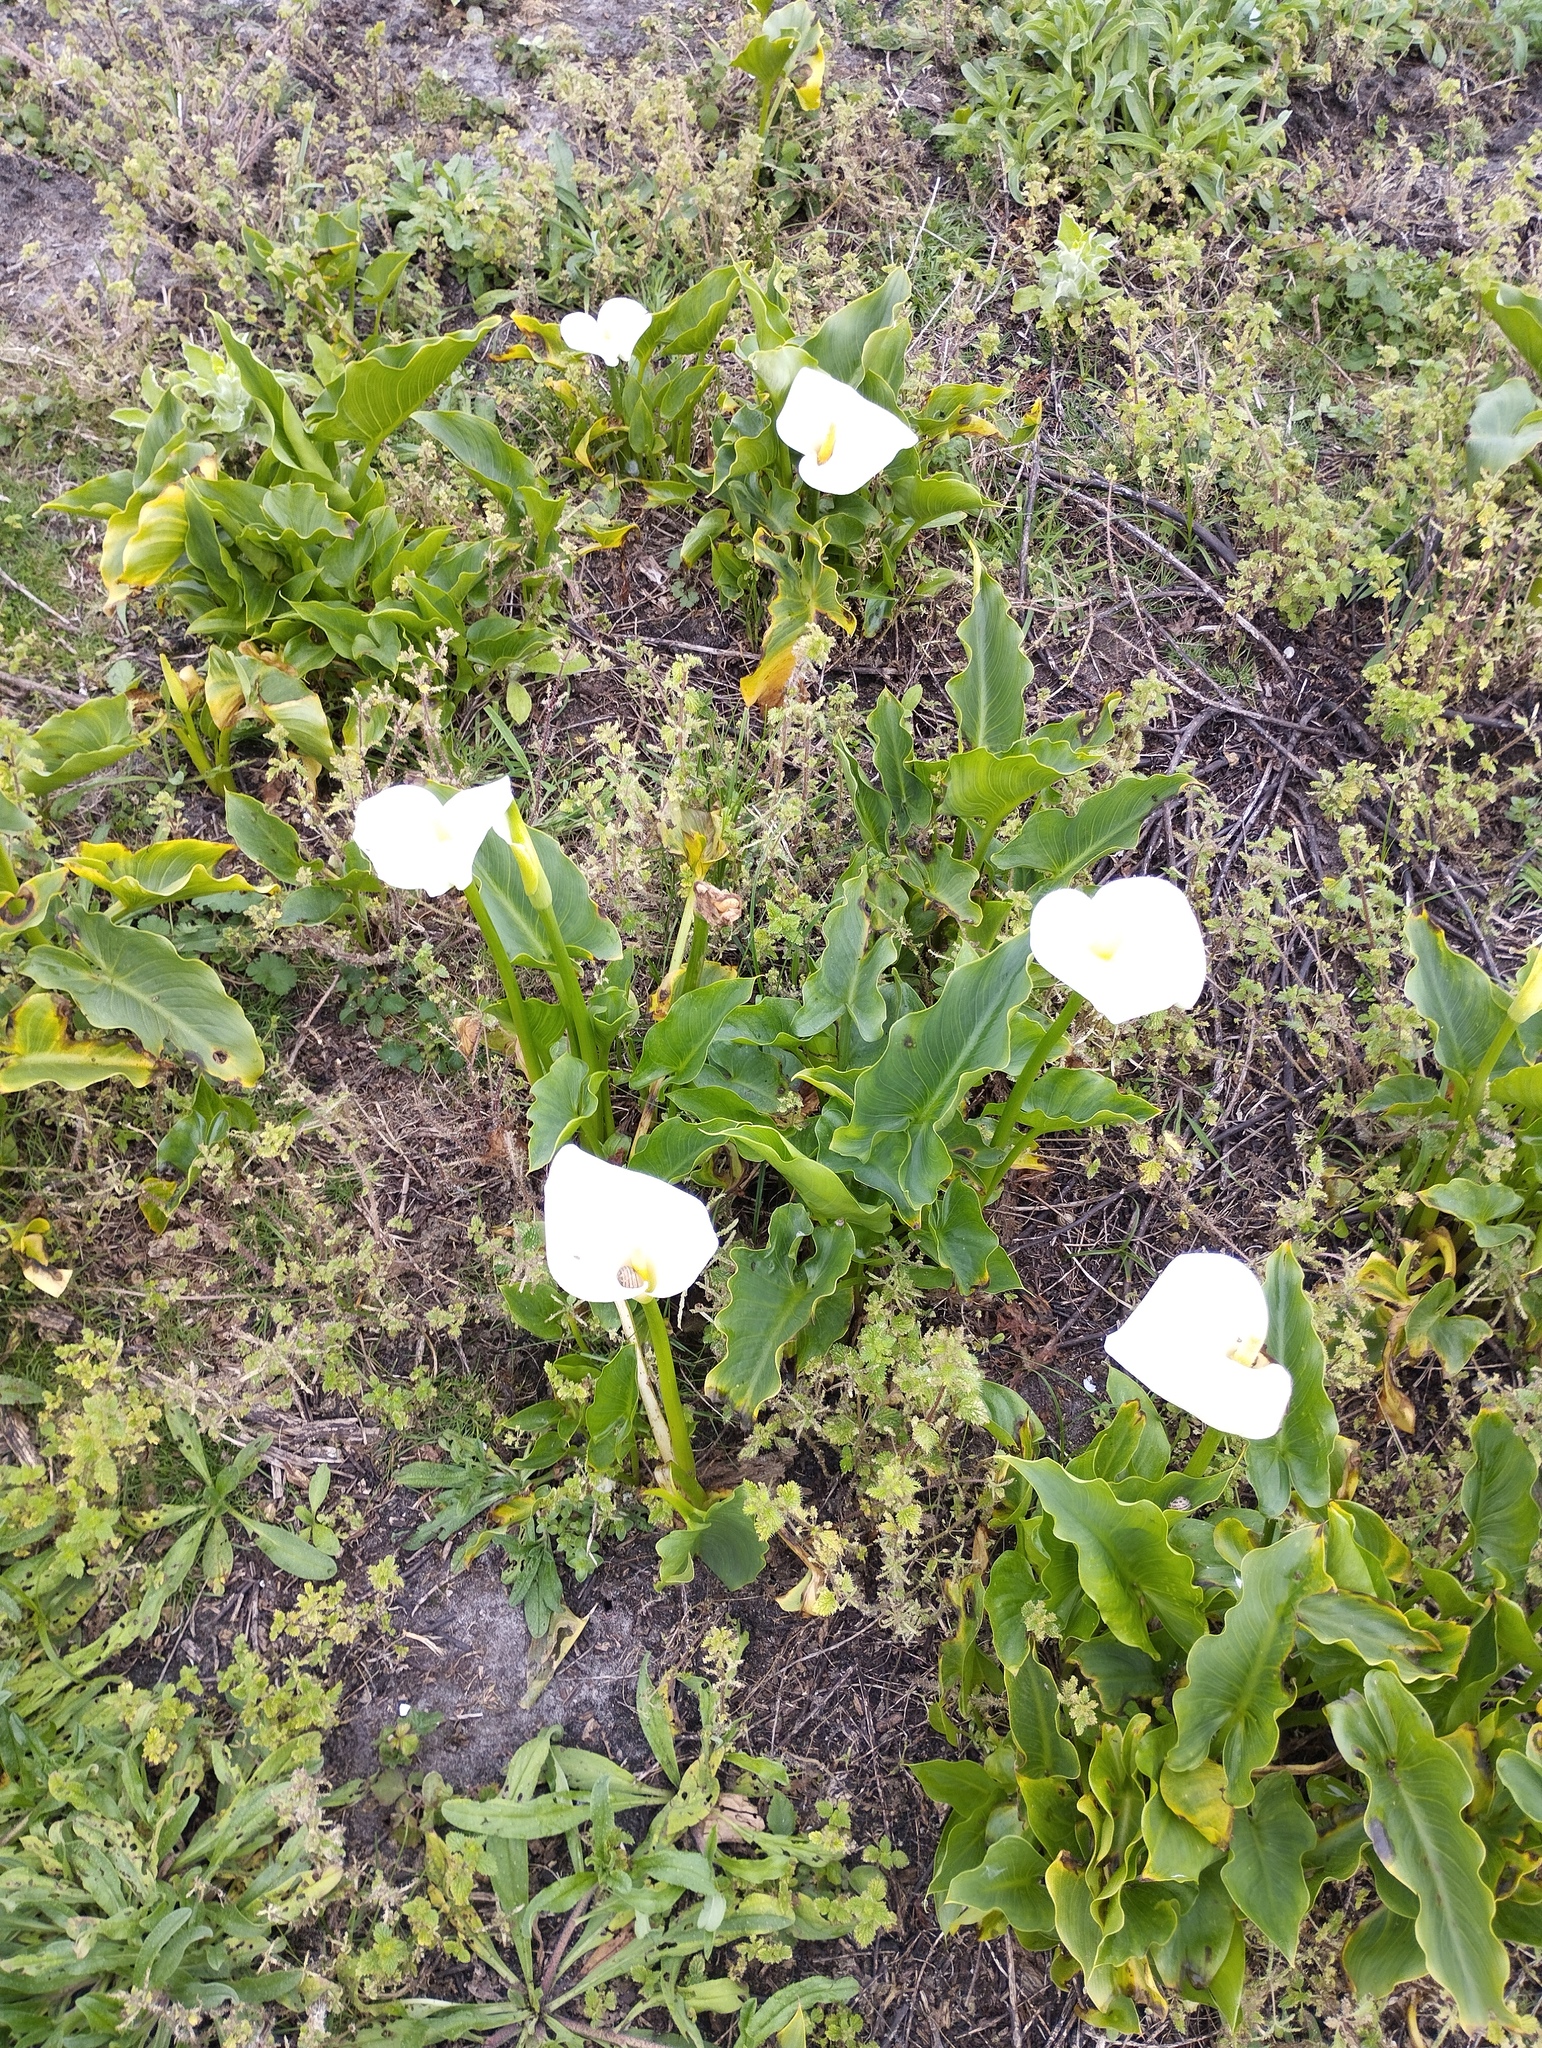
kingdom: Plantae
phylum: Tracheophyta
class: Liliopsida
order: Alismatales
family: Araceae
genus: Zantedeschia
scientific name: Zantedeschia aethiopica
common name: Altar-lily
